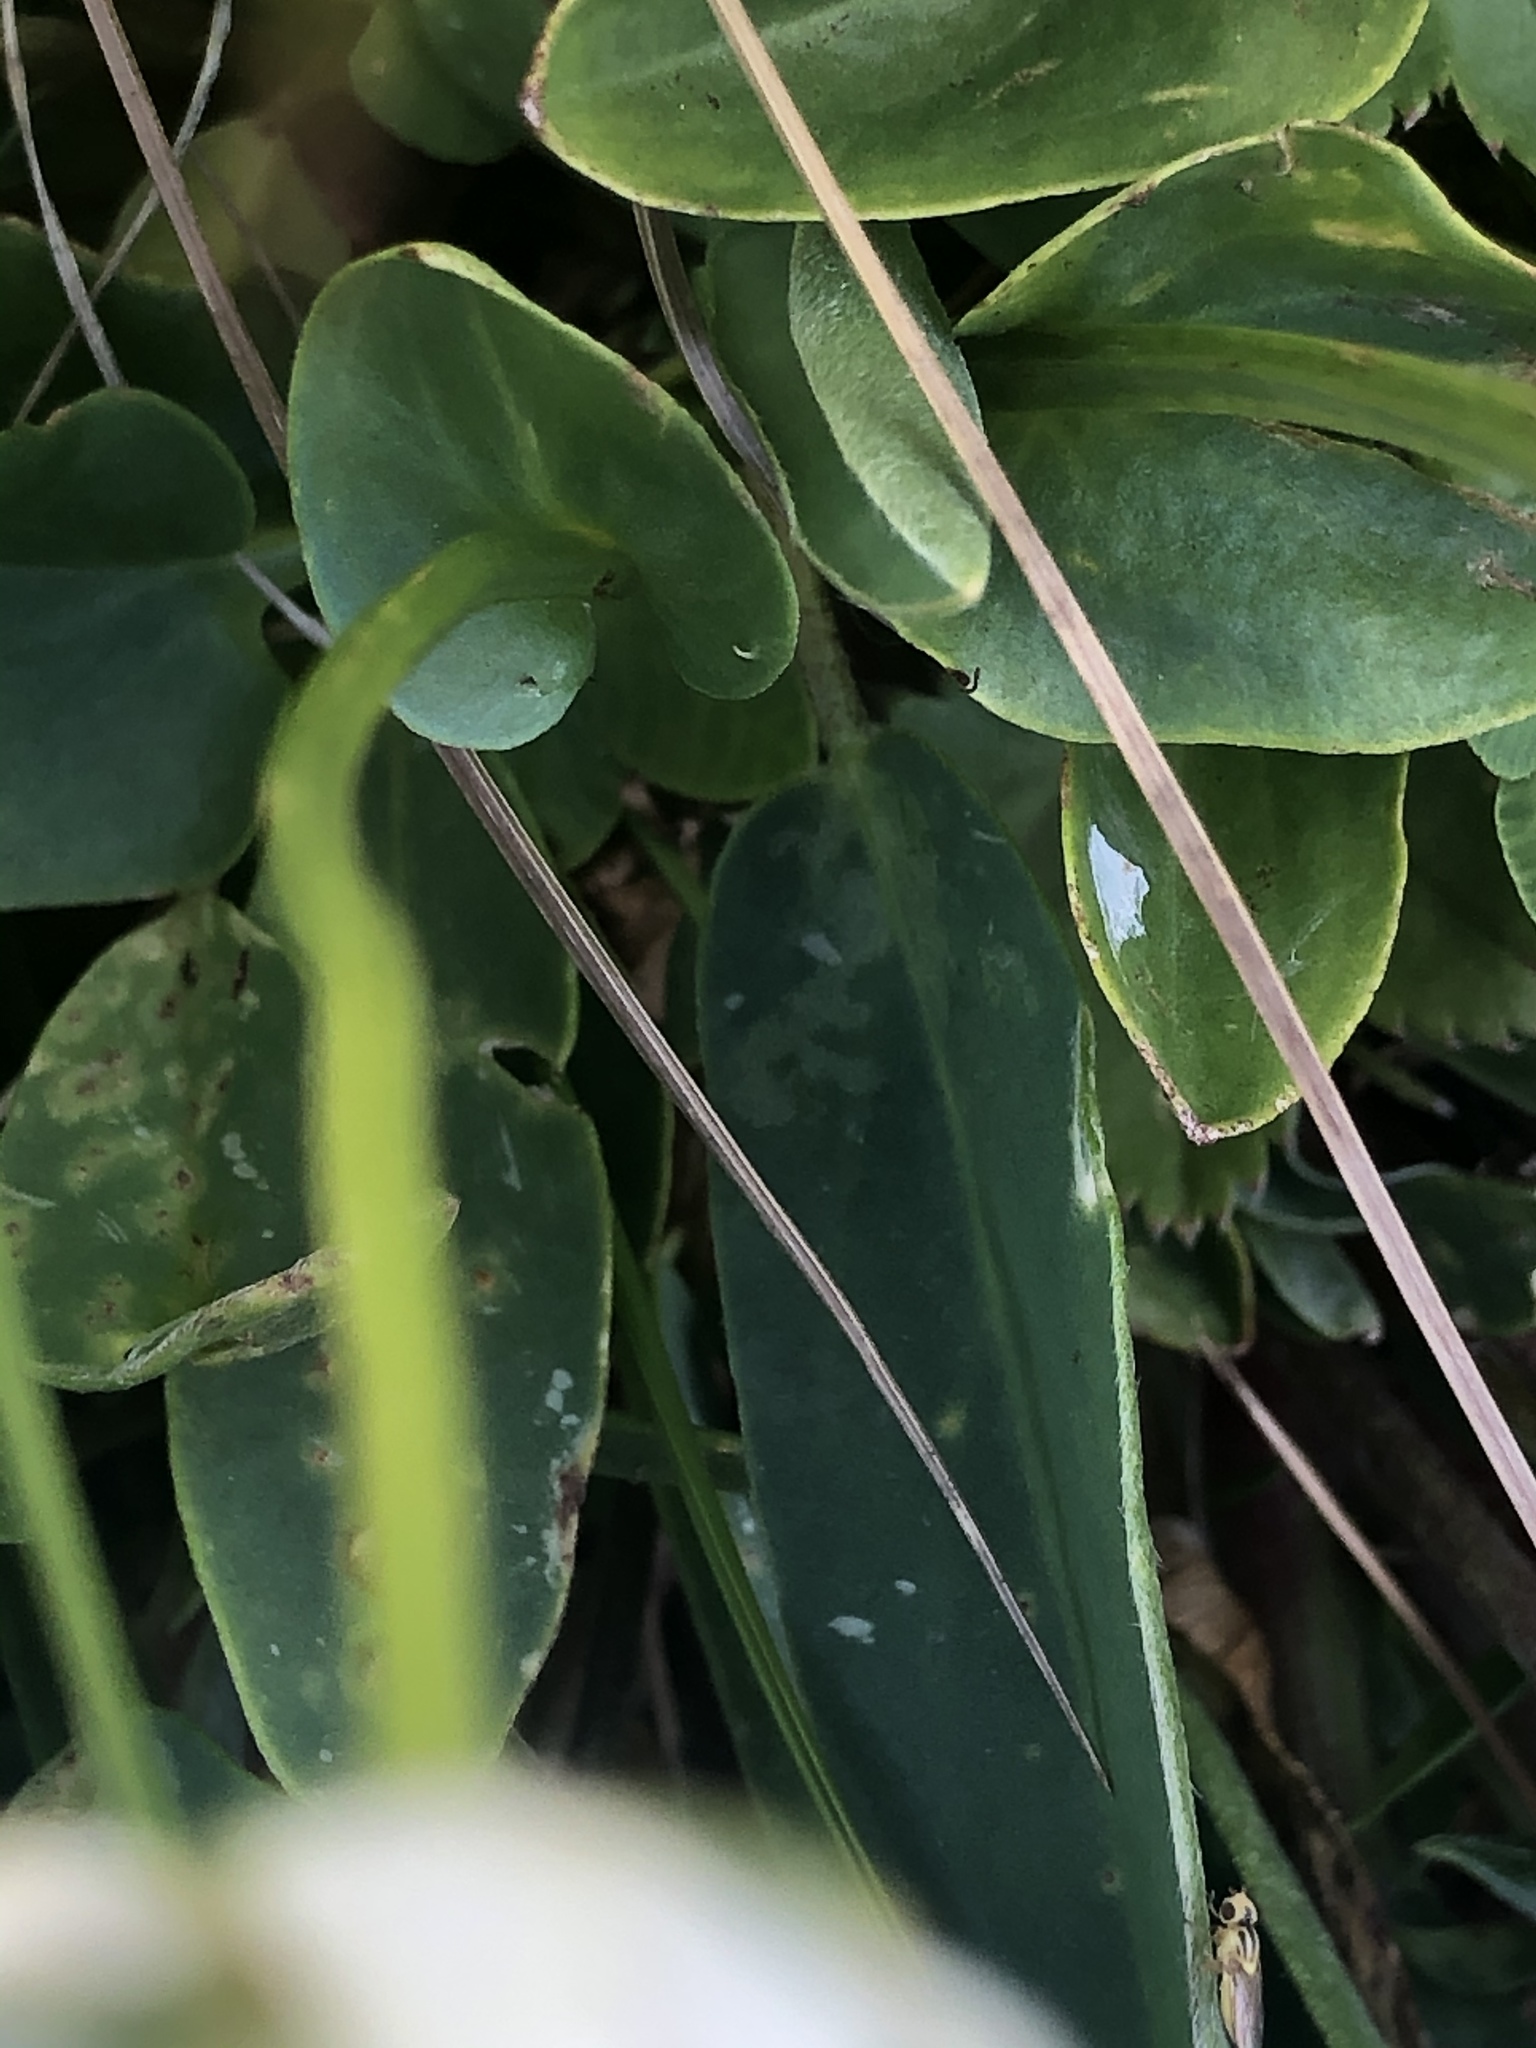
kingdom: Plantae
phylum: Tracheophyta
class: Magnoliopsida
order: Celastrales
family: Parnassiaceae
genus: Parnassia
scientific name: Parnassia palustris
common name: Grass-of-parnassus
